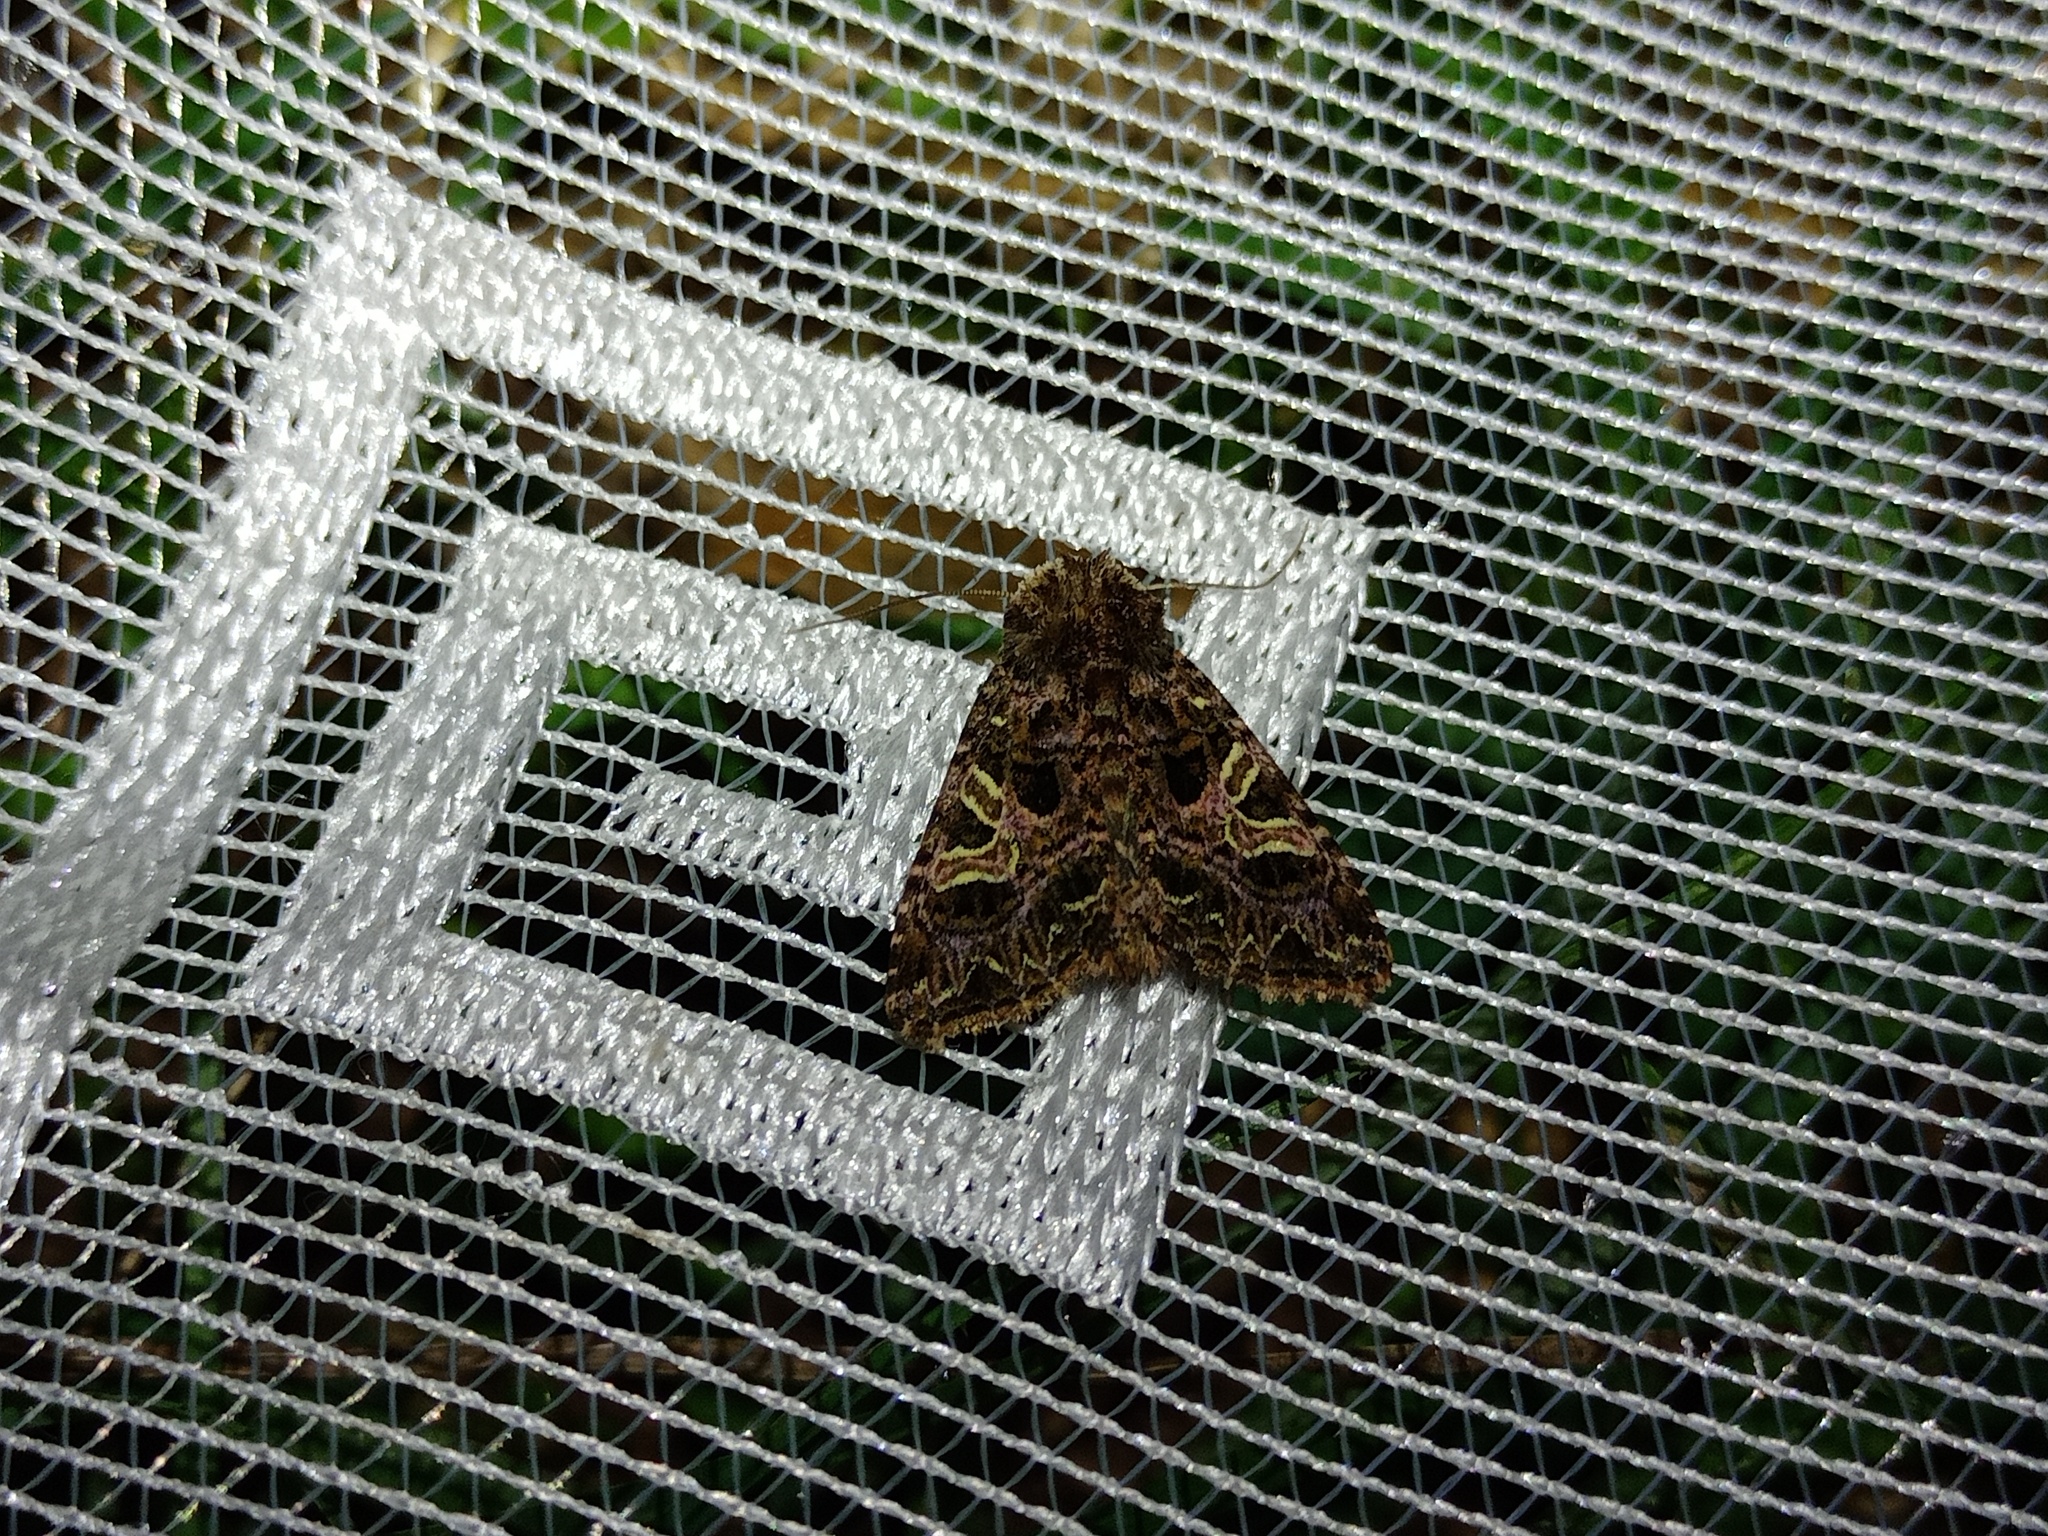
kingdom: Animalia
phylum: Arthropoda
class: Insecta
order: Lepidoptera
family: Noctuidae
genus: Sideridis
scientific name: Sideridis rivularis
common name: Campion
